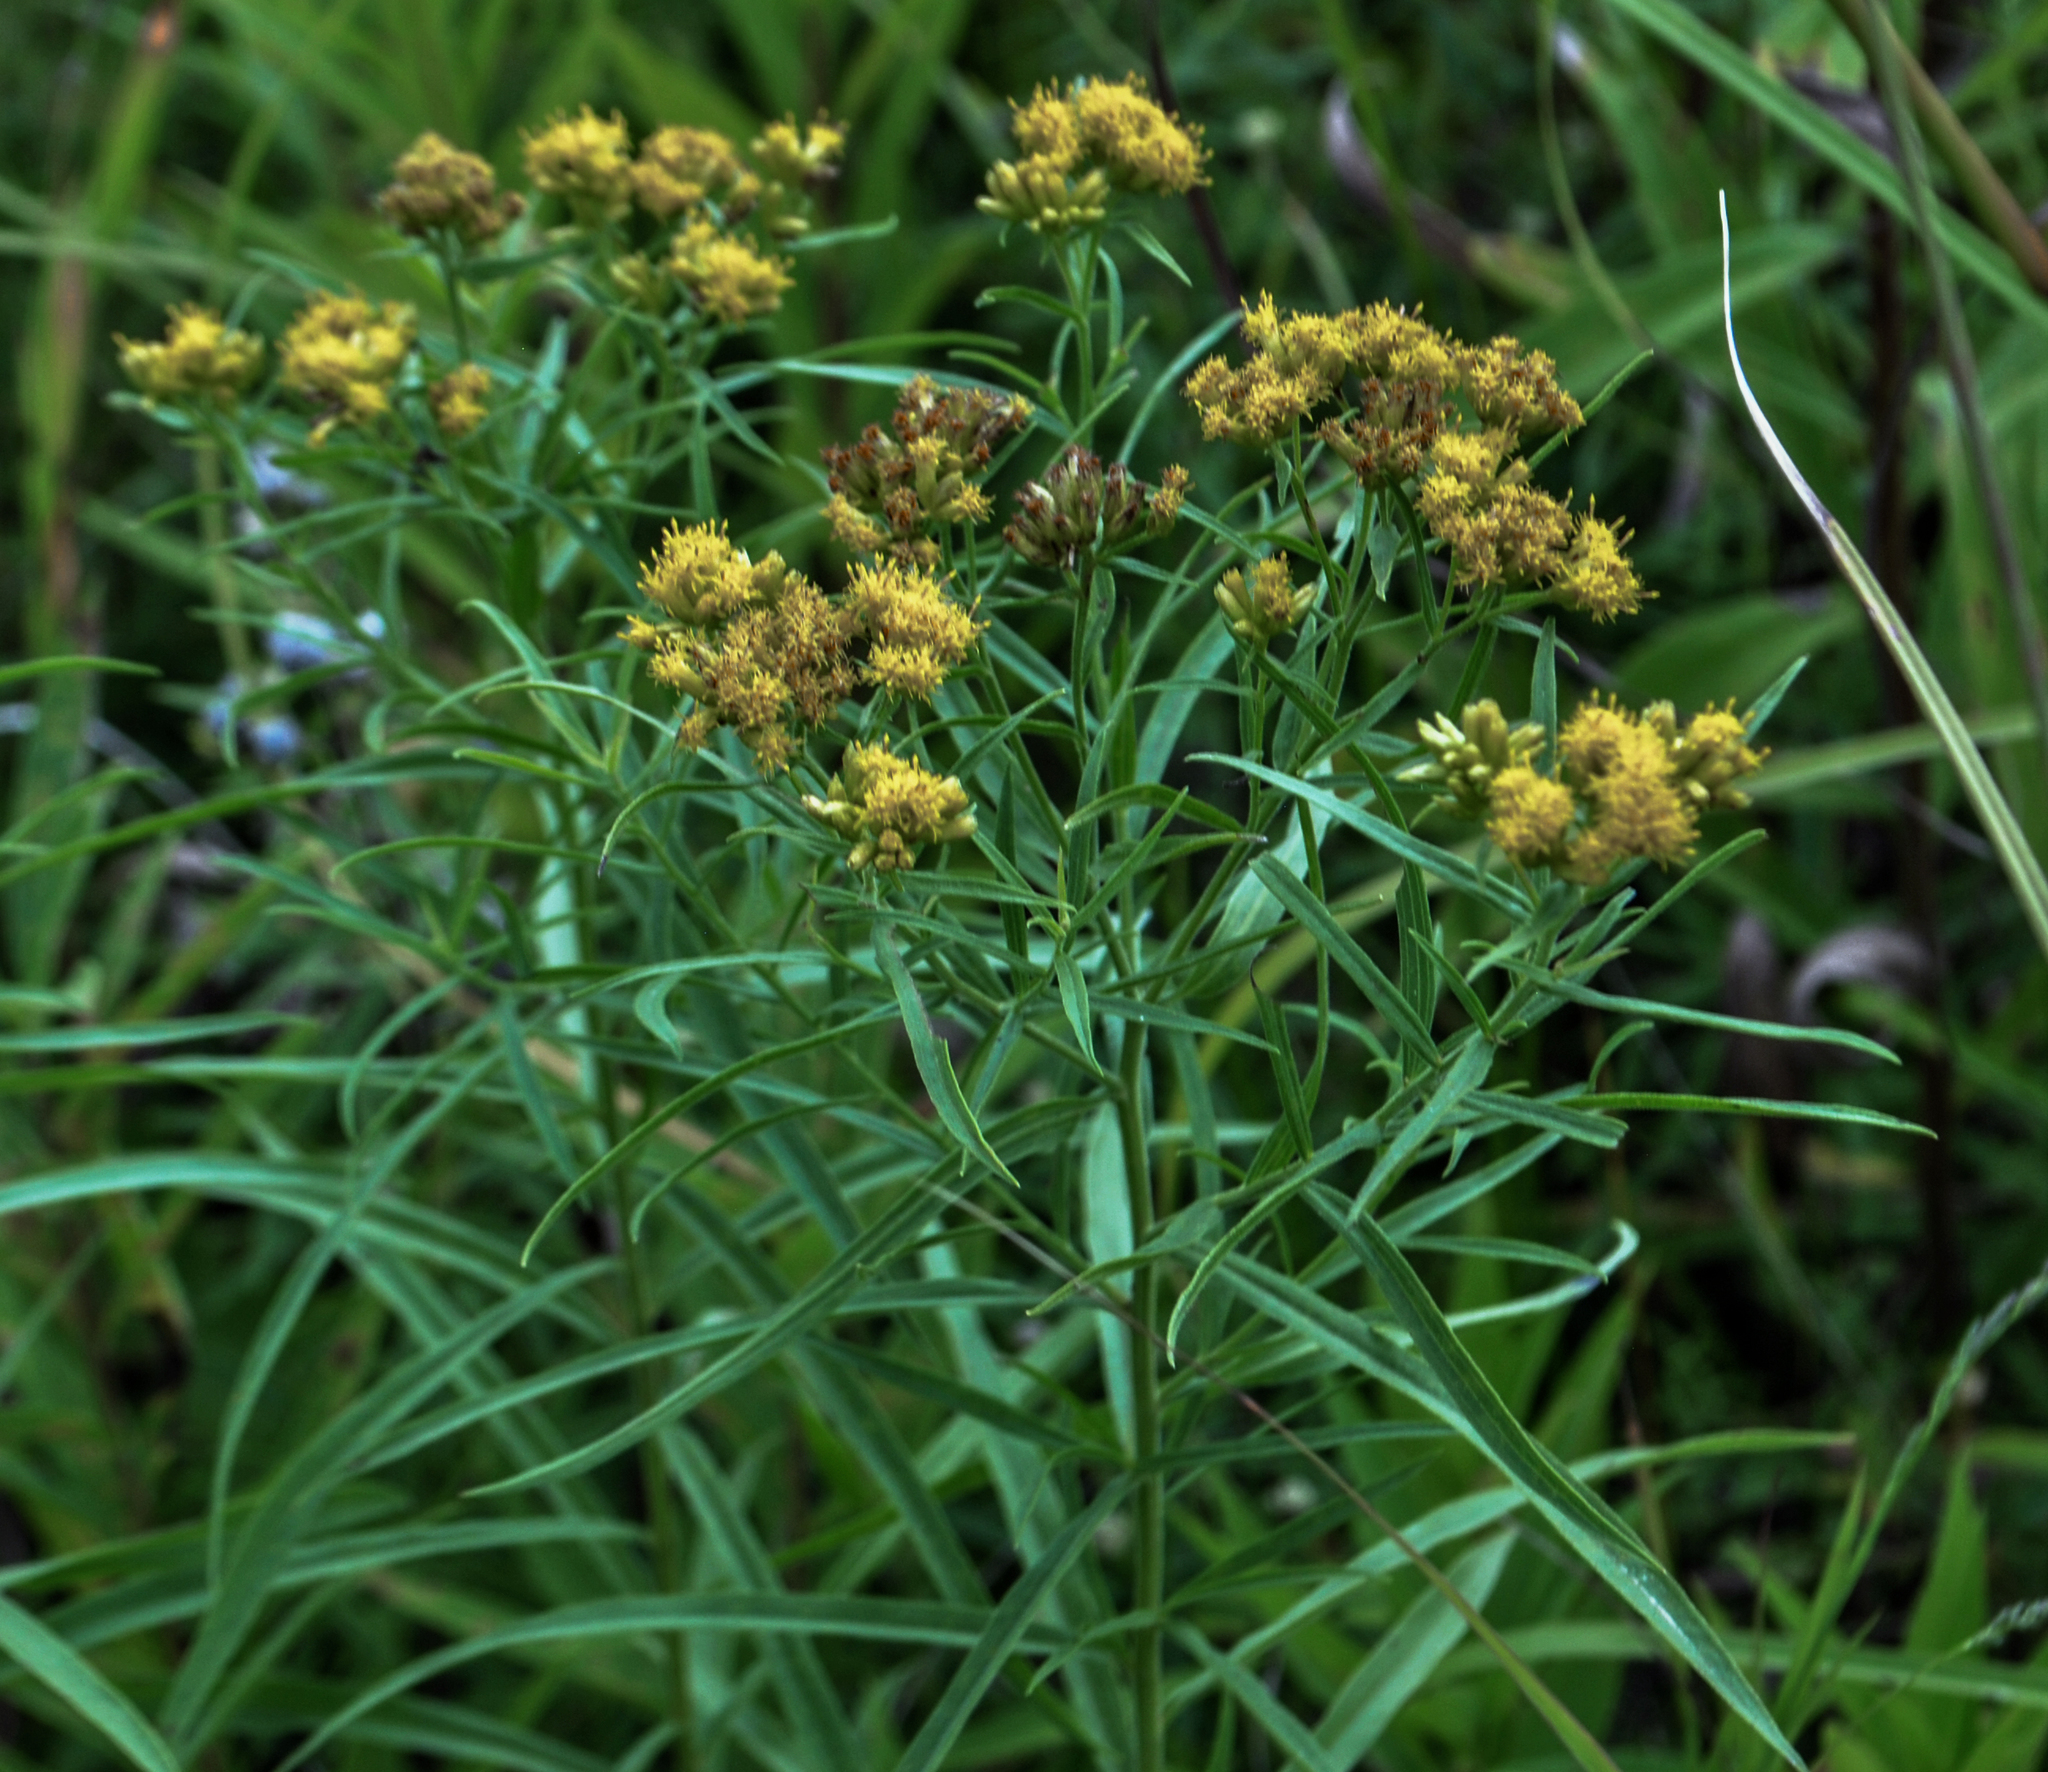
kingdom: Plantae
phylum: Tracheophyta
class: Magnoliopsida
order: Asterales
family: Asteraceae
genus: Euthamia
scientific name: Euthamia graminifolia
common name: Common goldentop
